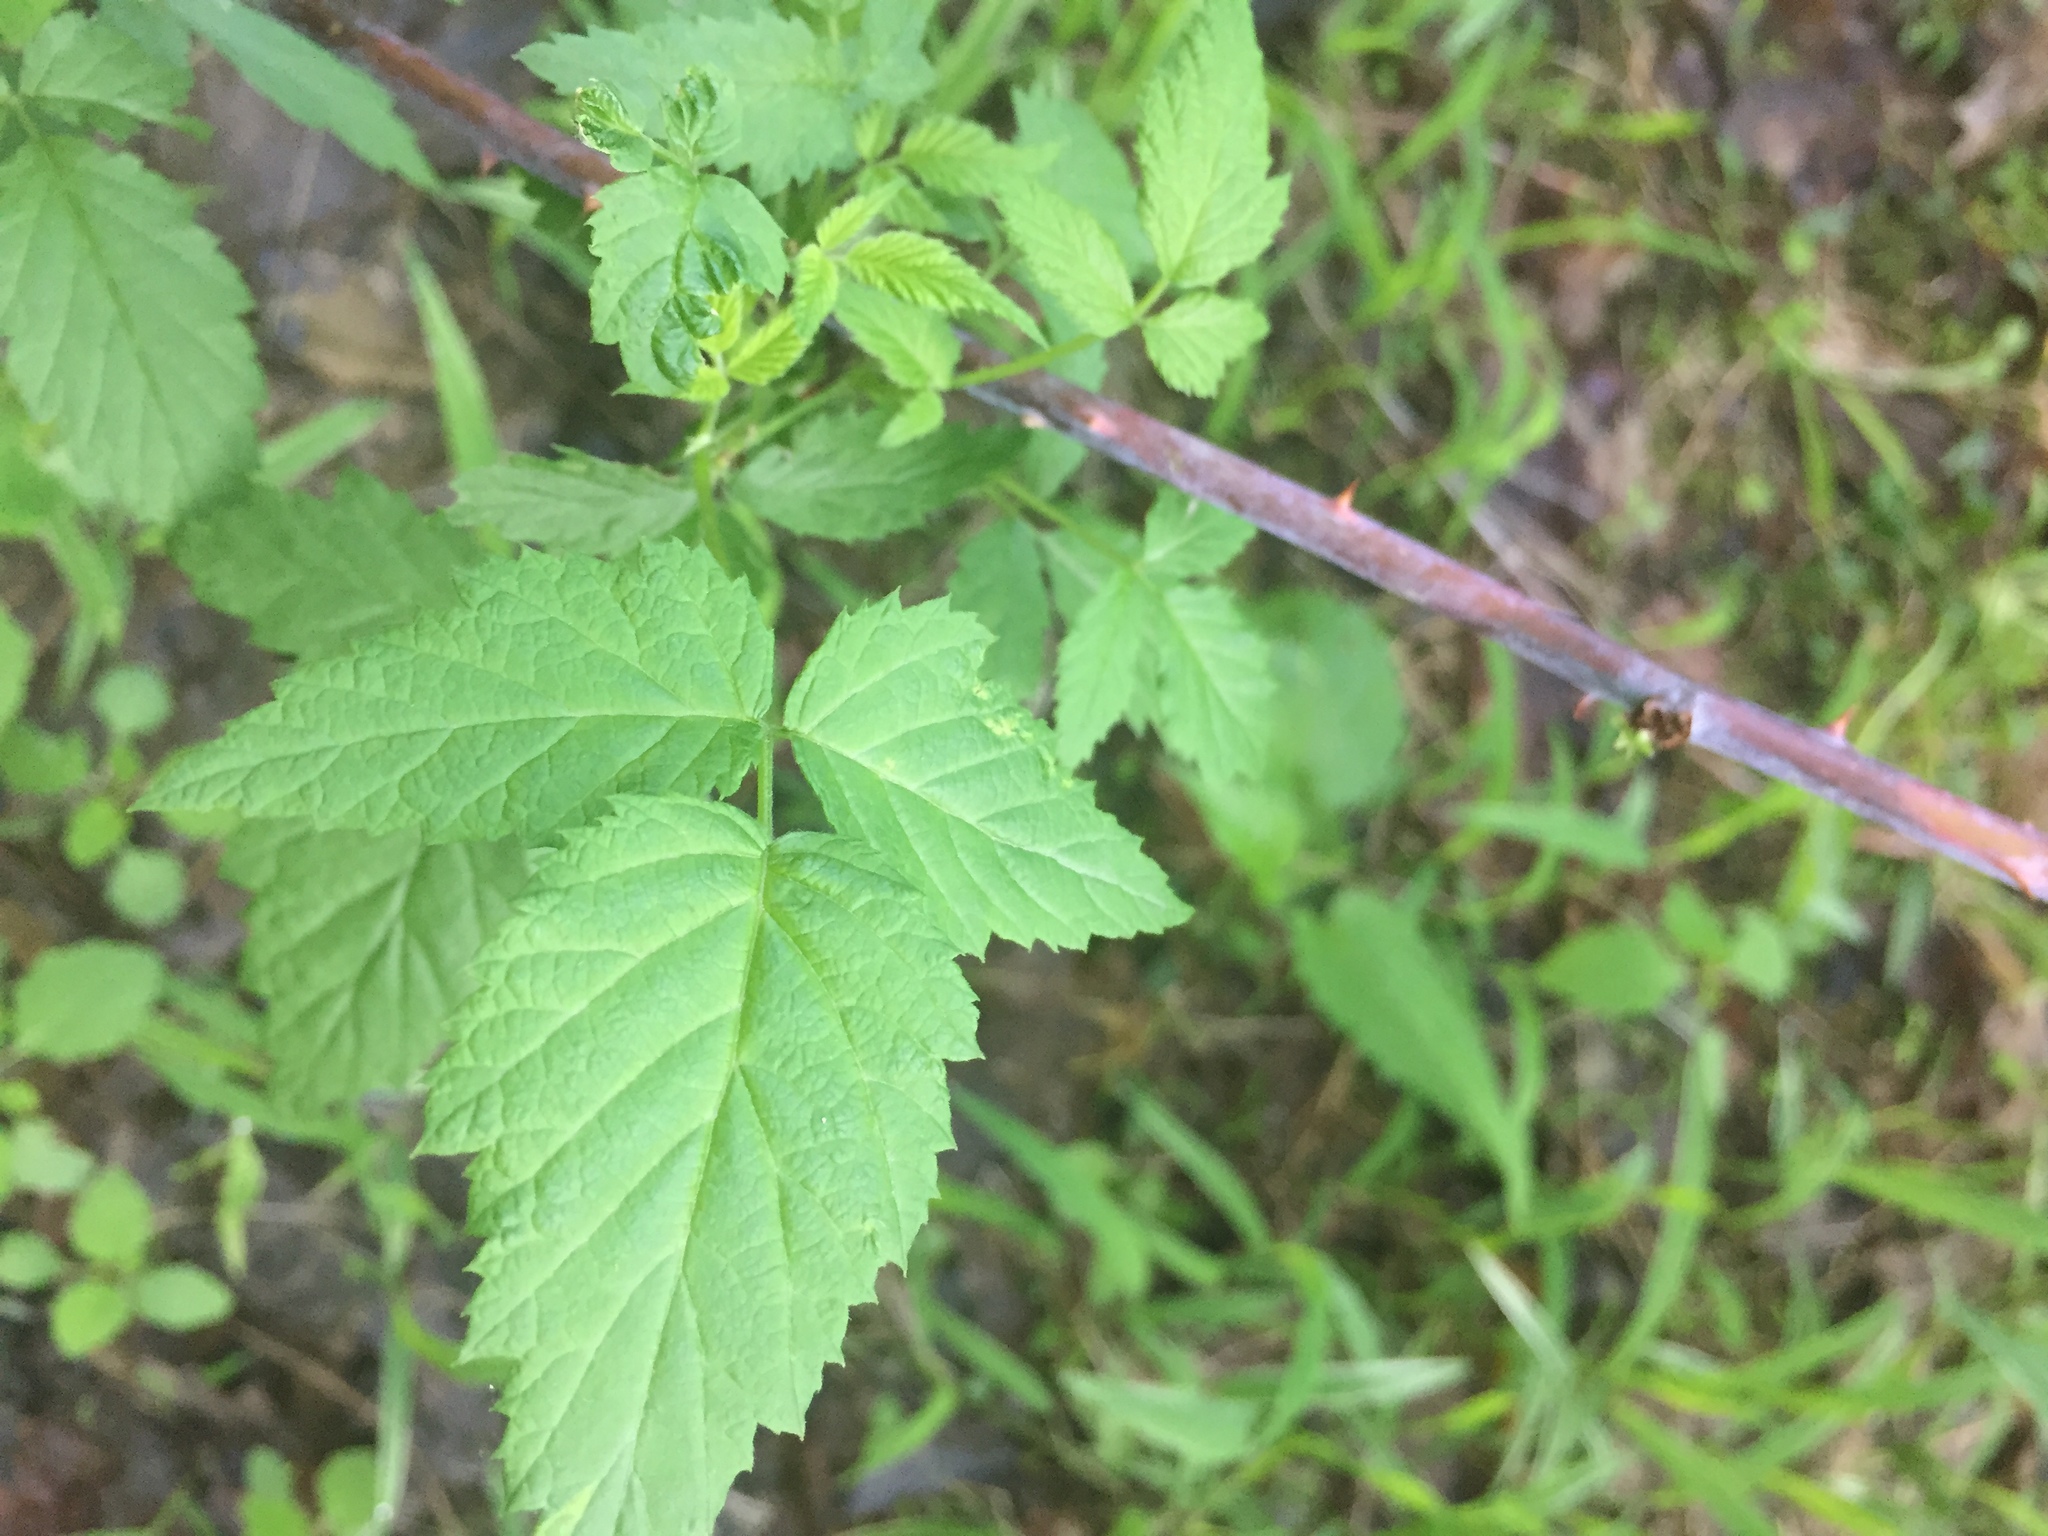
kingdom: Plantae
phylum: Tracheophyta
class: Magnoliopsida
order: Rosales
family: Rosaceae
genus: Rubus
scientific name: Rubus occidentalis
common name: Black raspberry
